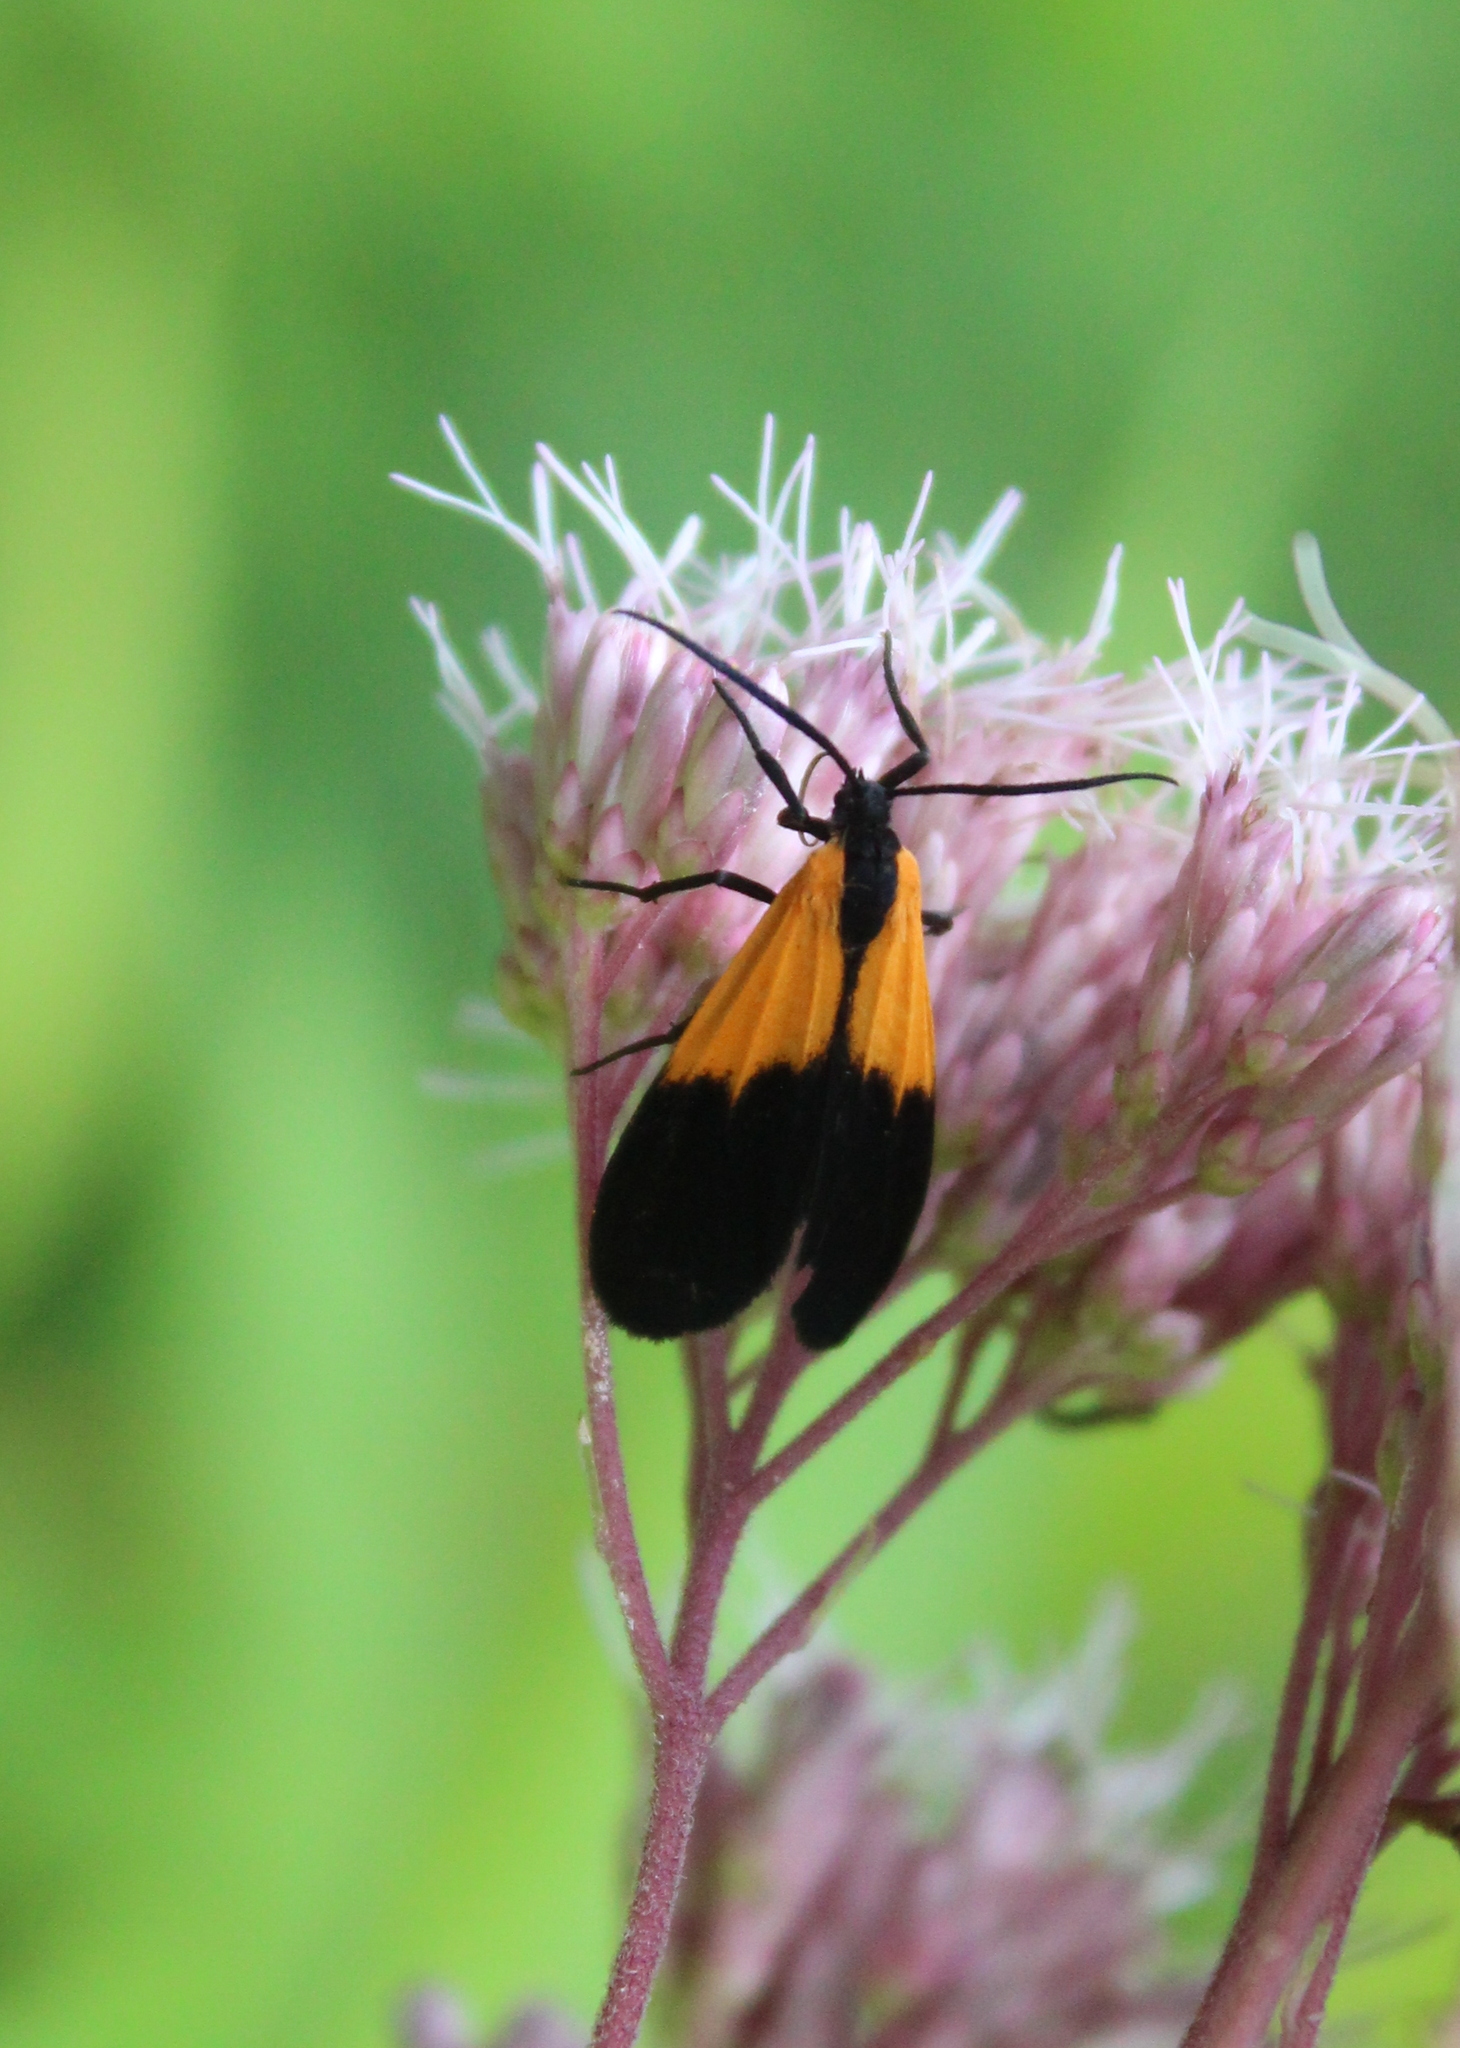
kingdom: Animalia
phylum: Arthropoda
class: Insecta
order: Lepidoptera
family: Erebidae
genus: Lycomorpha
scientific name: Lycomorpha pholus
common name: Black-and-yellow lichen moth
